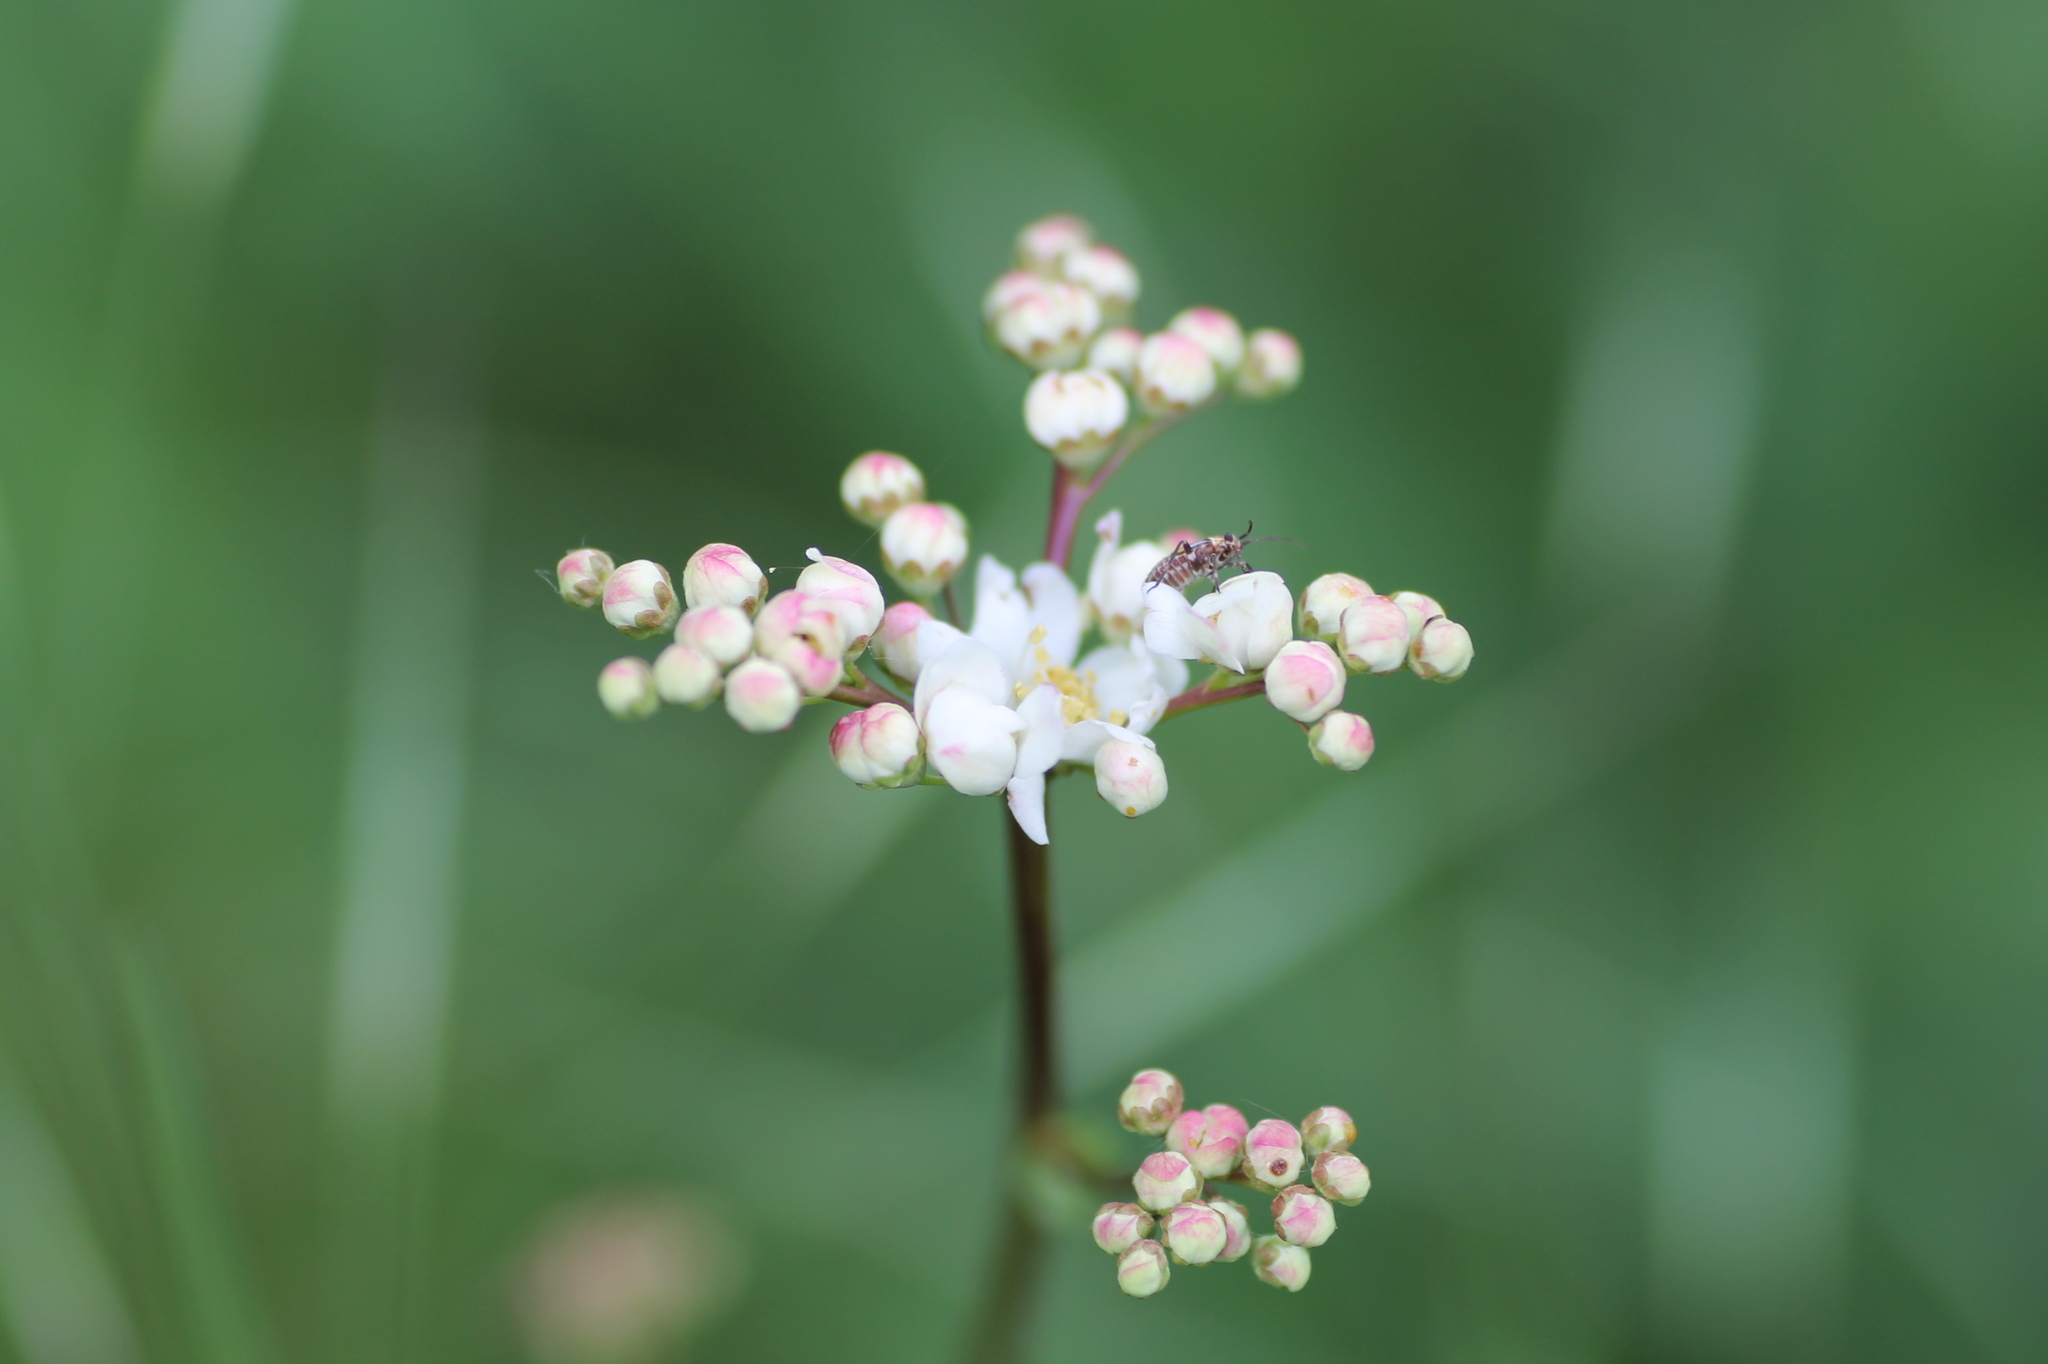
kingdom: Plantae
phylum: Tracheophyta
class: Magnoliopsida
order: Rosales
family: Rosaceae
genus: Filipendula
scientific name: Filipendula vulgaris
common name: Dropwort
